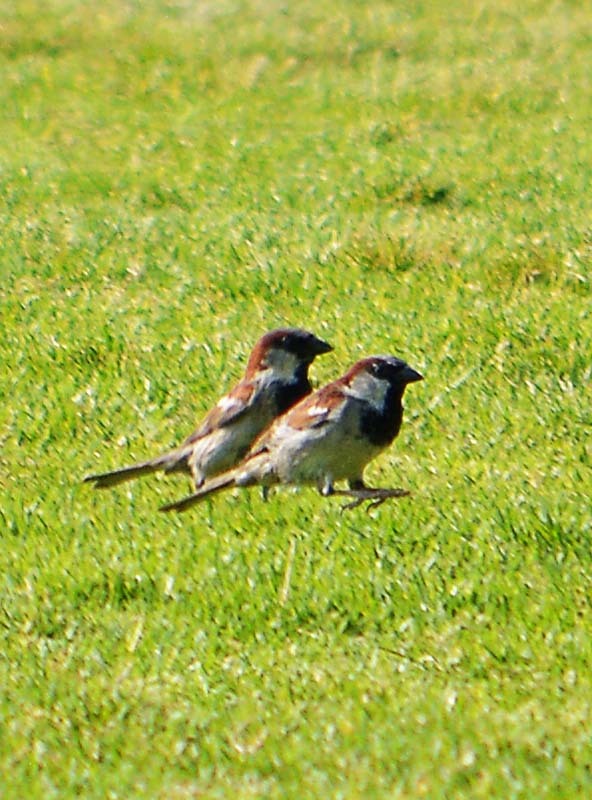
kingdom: Animalia
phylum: Chordata
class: Aves
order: Passeriformes
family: Passeridae
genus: Passer
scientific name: Passer domesticus
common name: House sparrow
